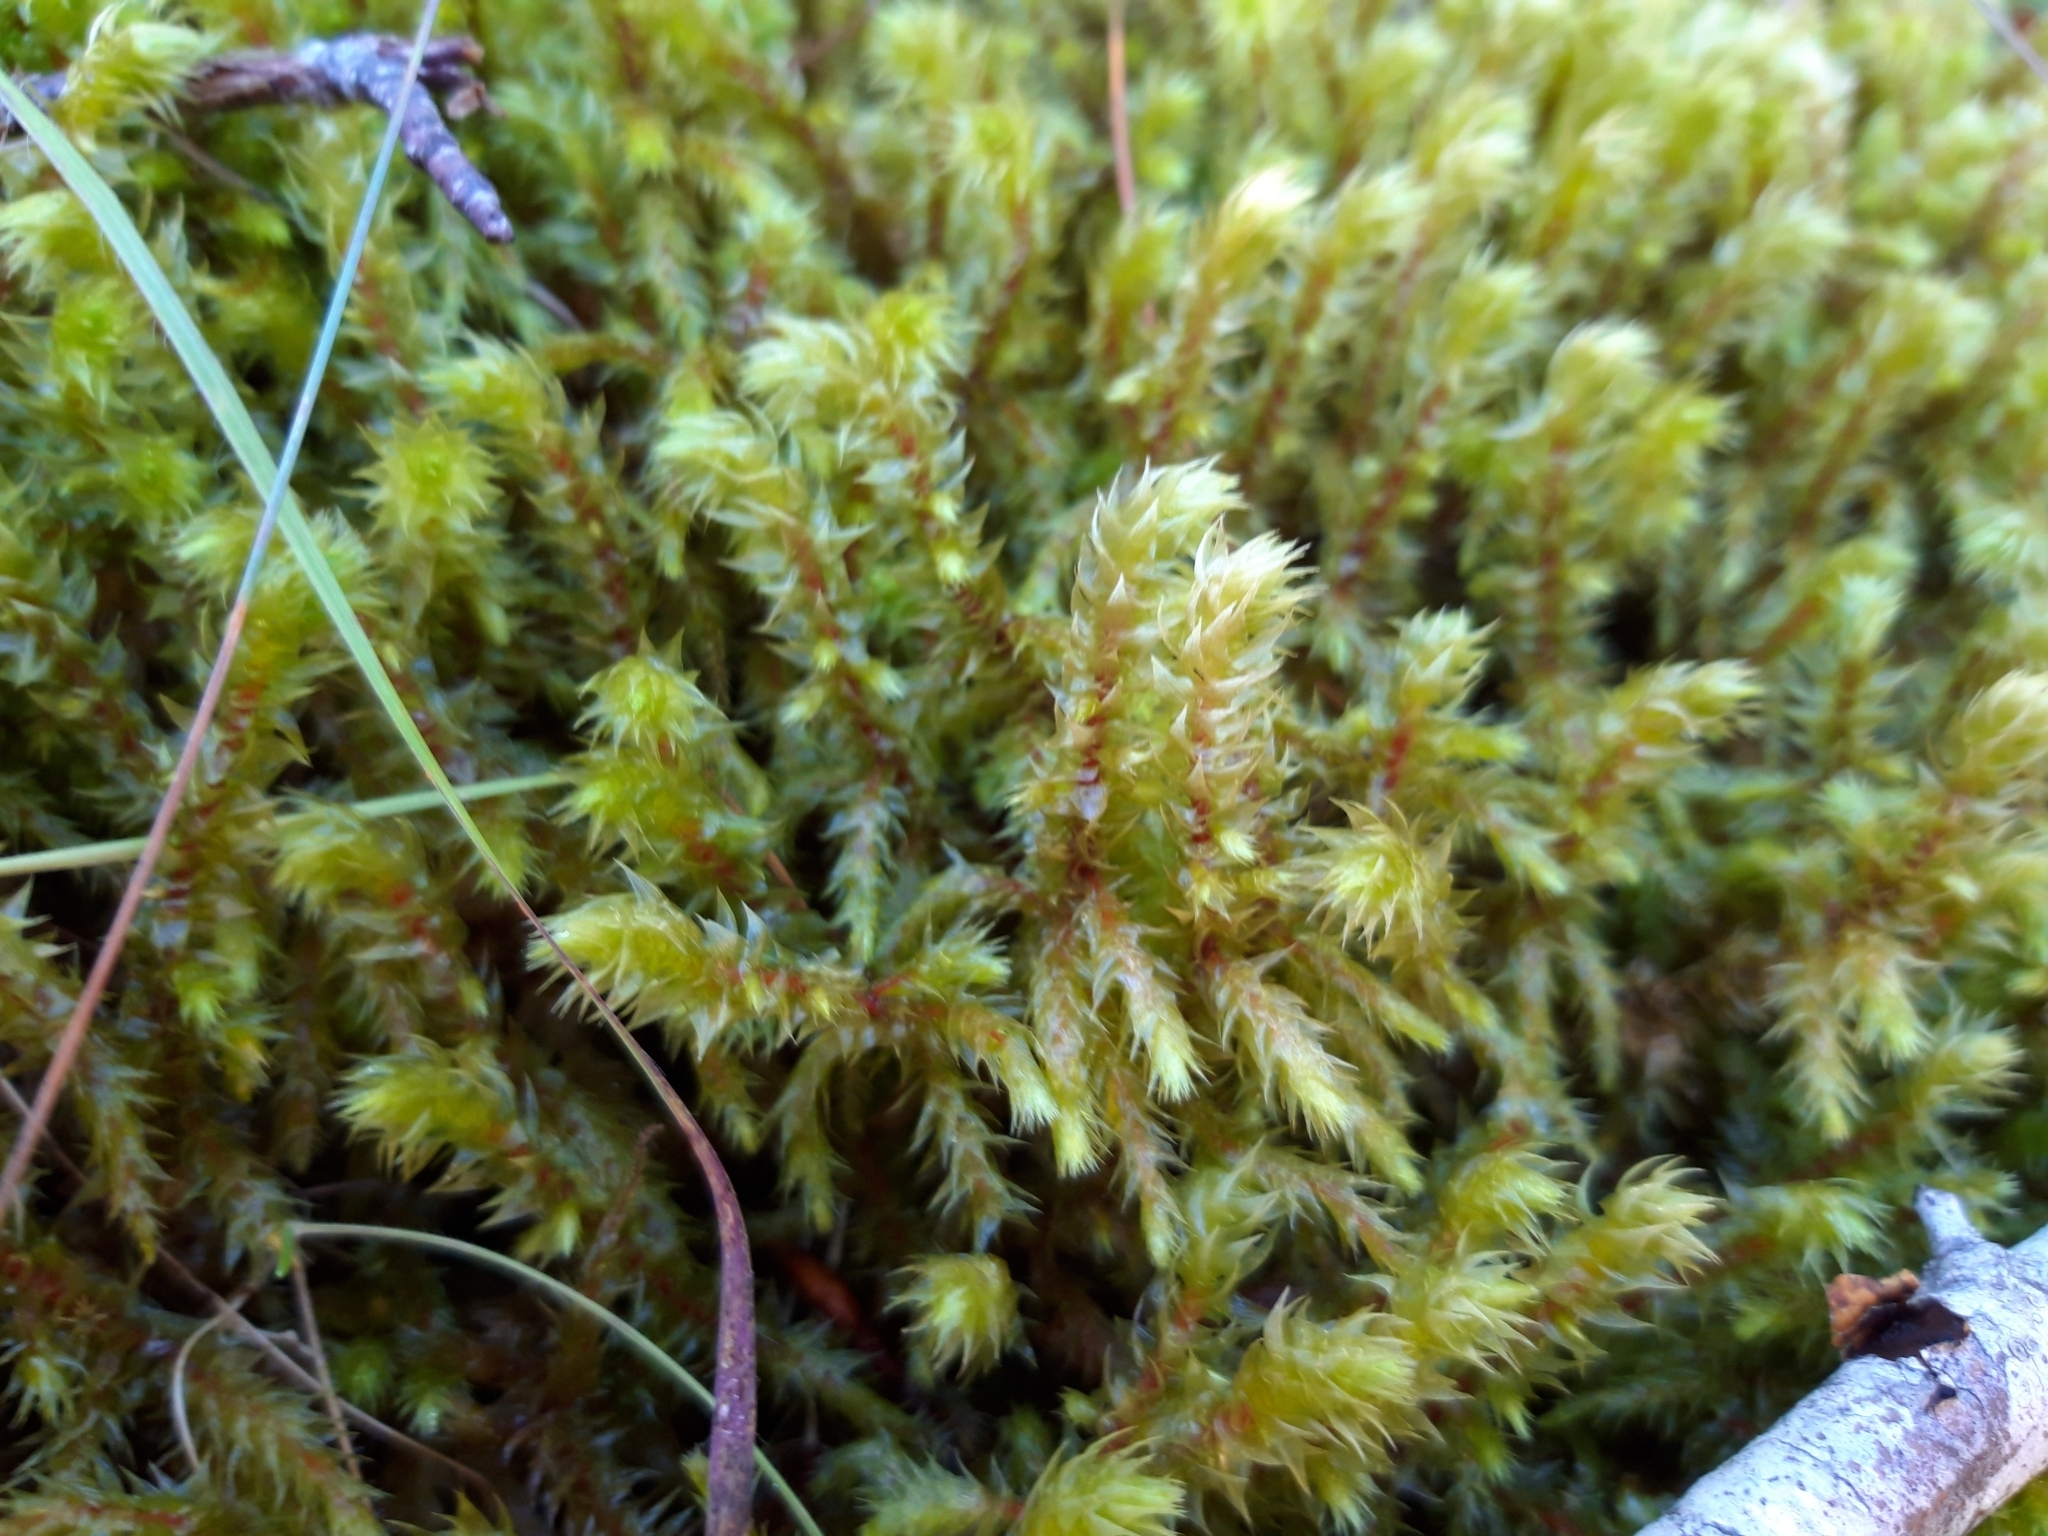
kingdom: Plantae
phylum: Bryophyta
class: Bryopsida
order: Hypnales
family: Hylocomiaceae
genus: Hylocomiadelphus
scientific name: Hylocomiadelphus triquetrus
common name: Rough goose neck moss
